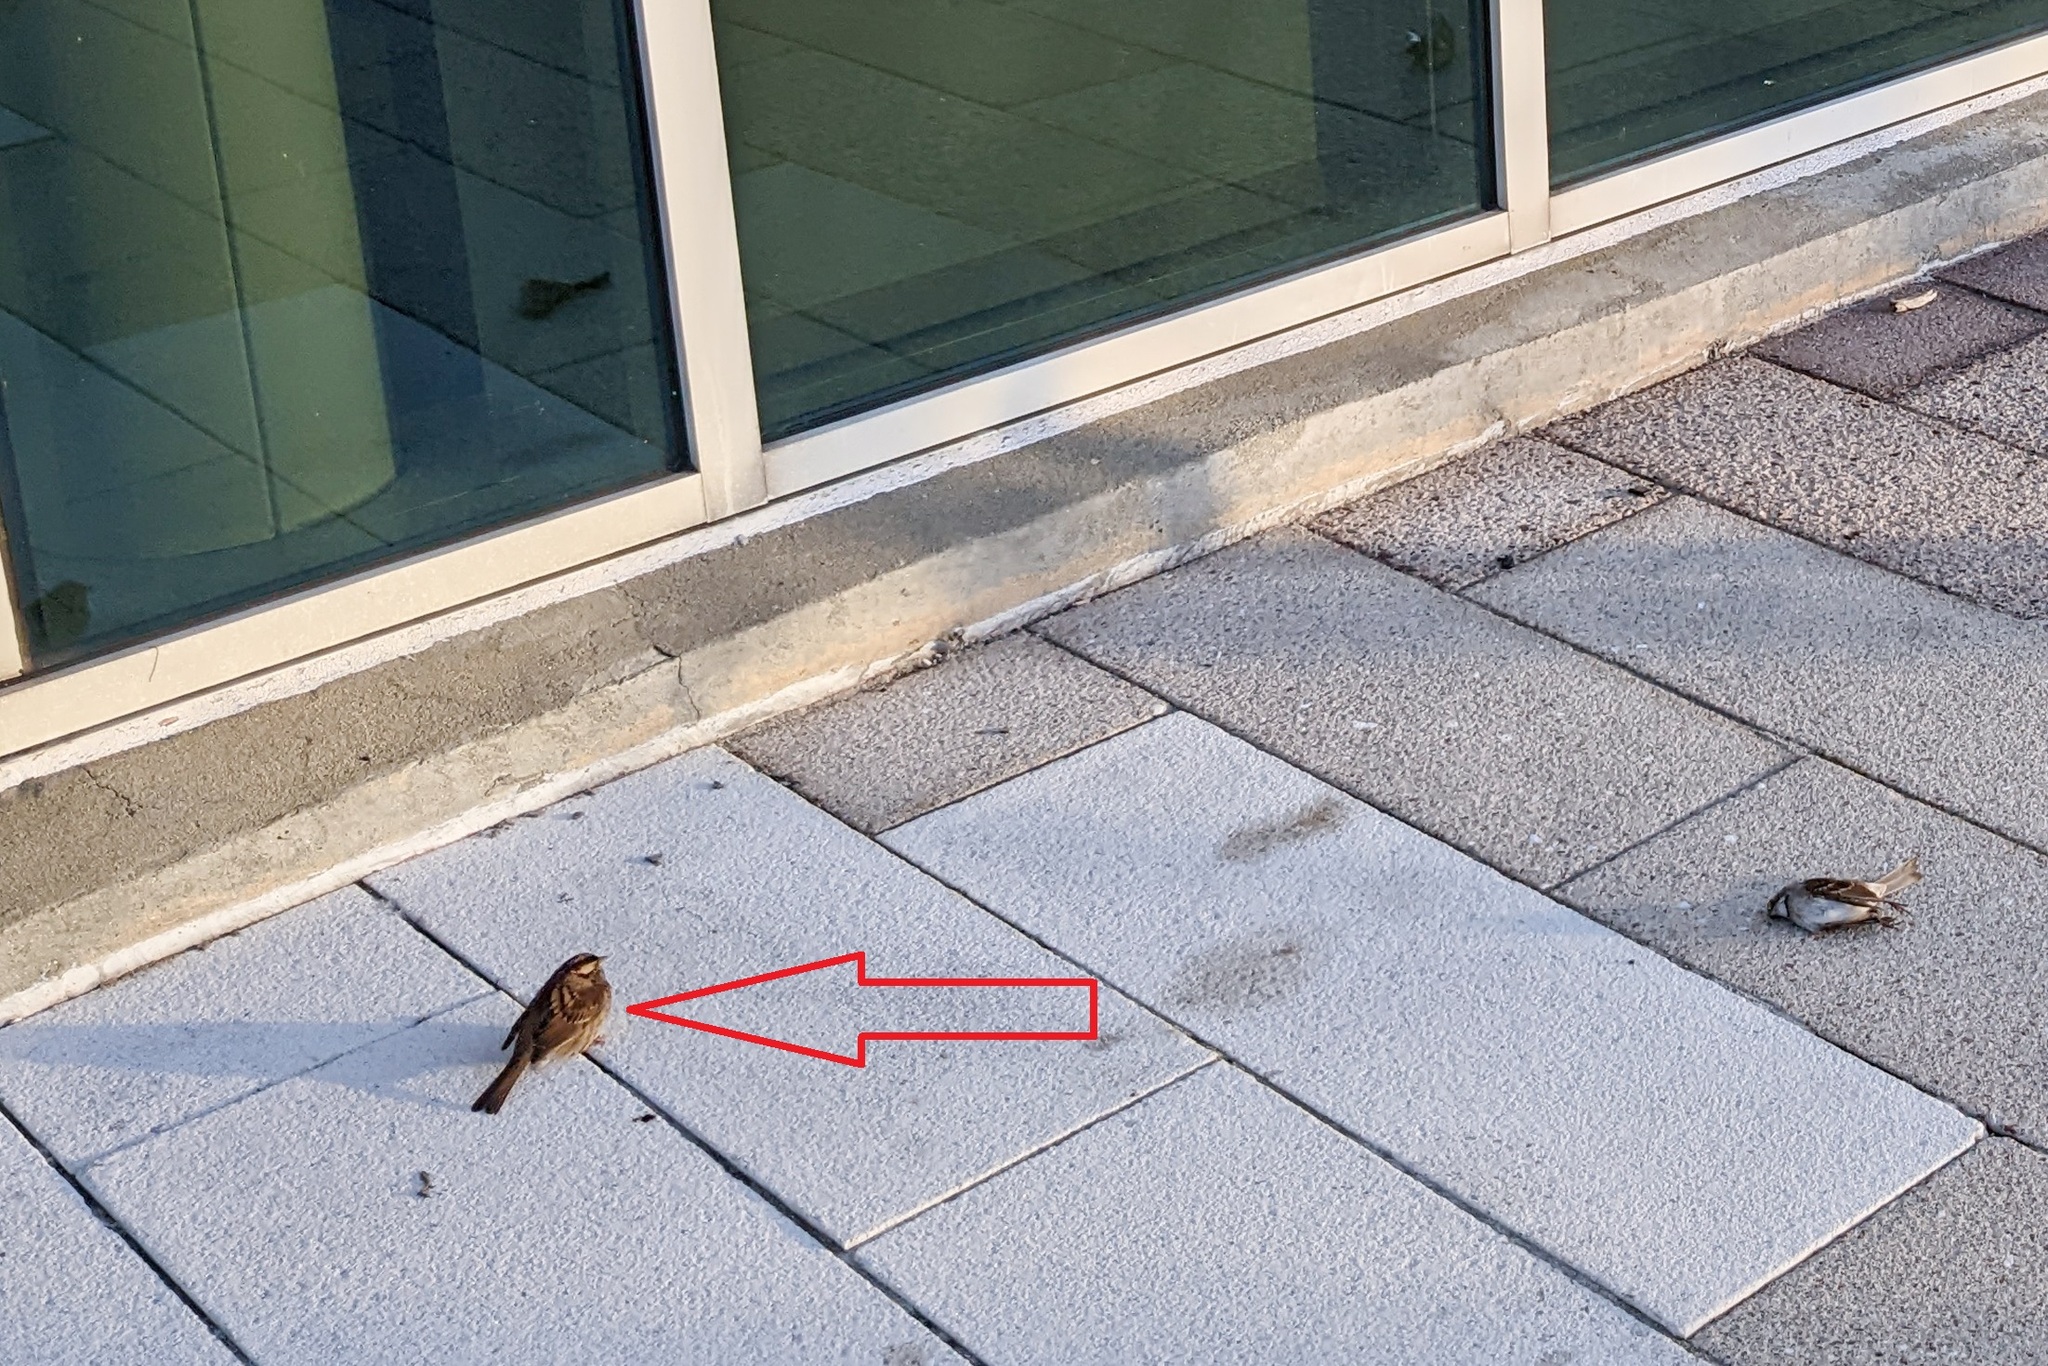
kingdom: Animalia
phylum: Chordata
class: Aves
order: Passeriformes
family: Passerellidae
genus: Zonotrichia
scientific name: Zonotrichia albicollis
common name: White-throated sparrow
